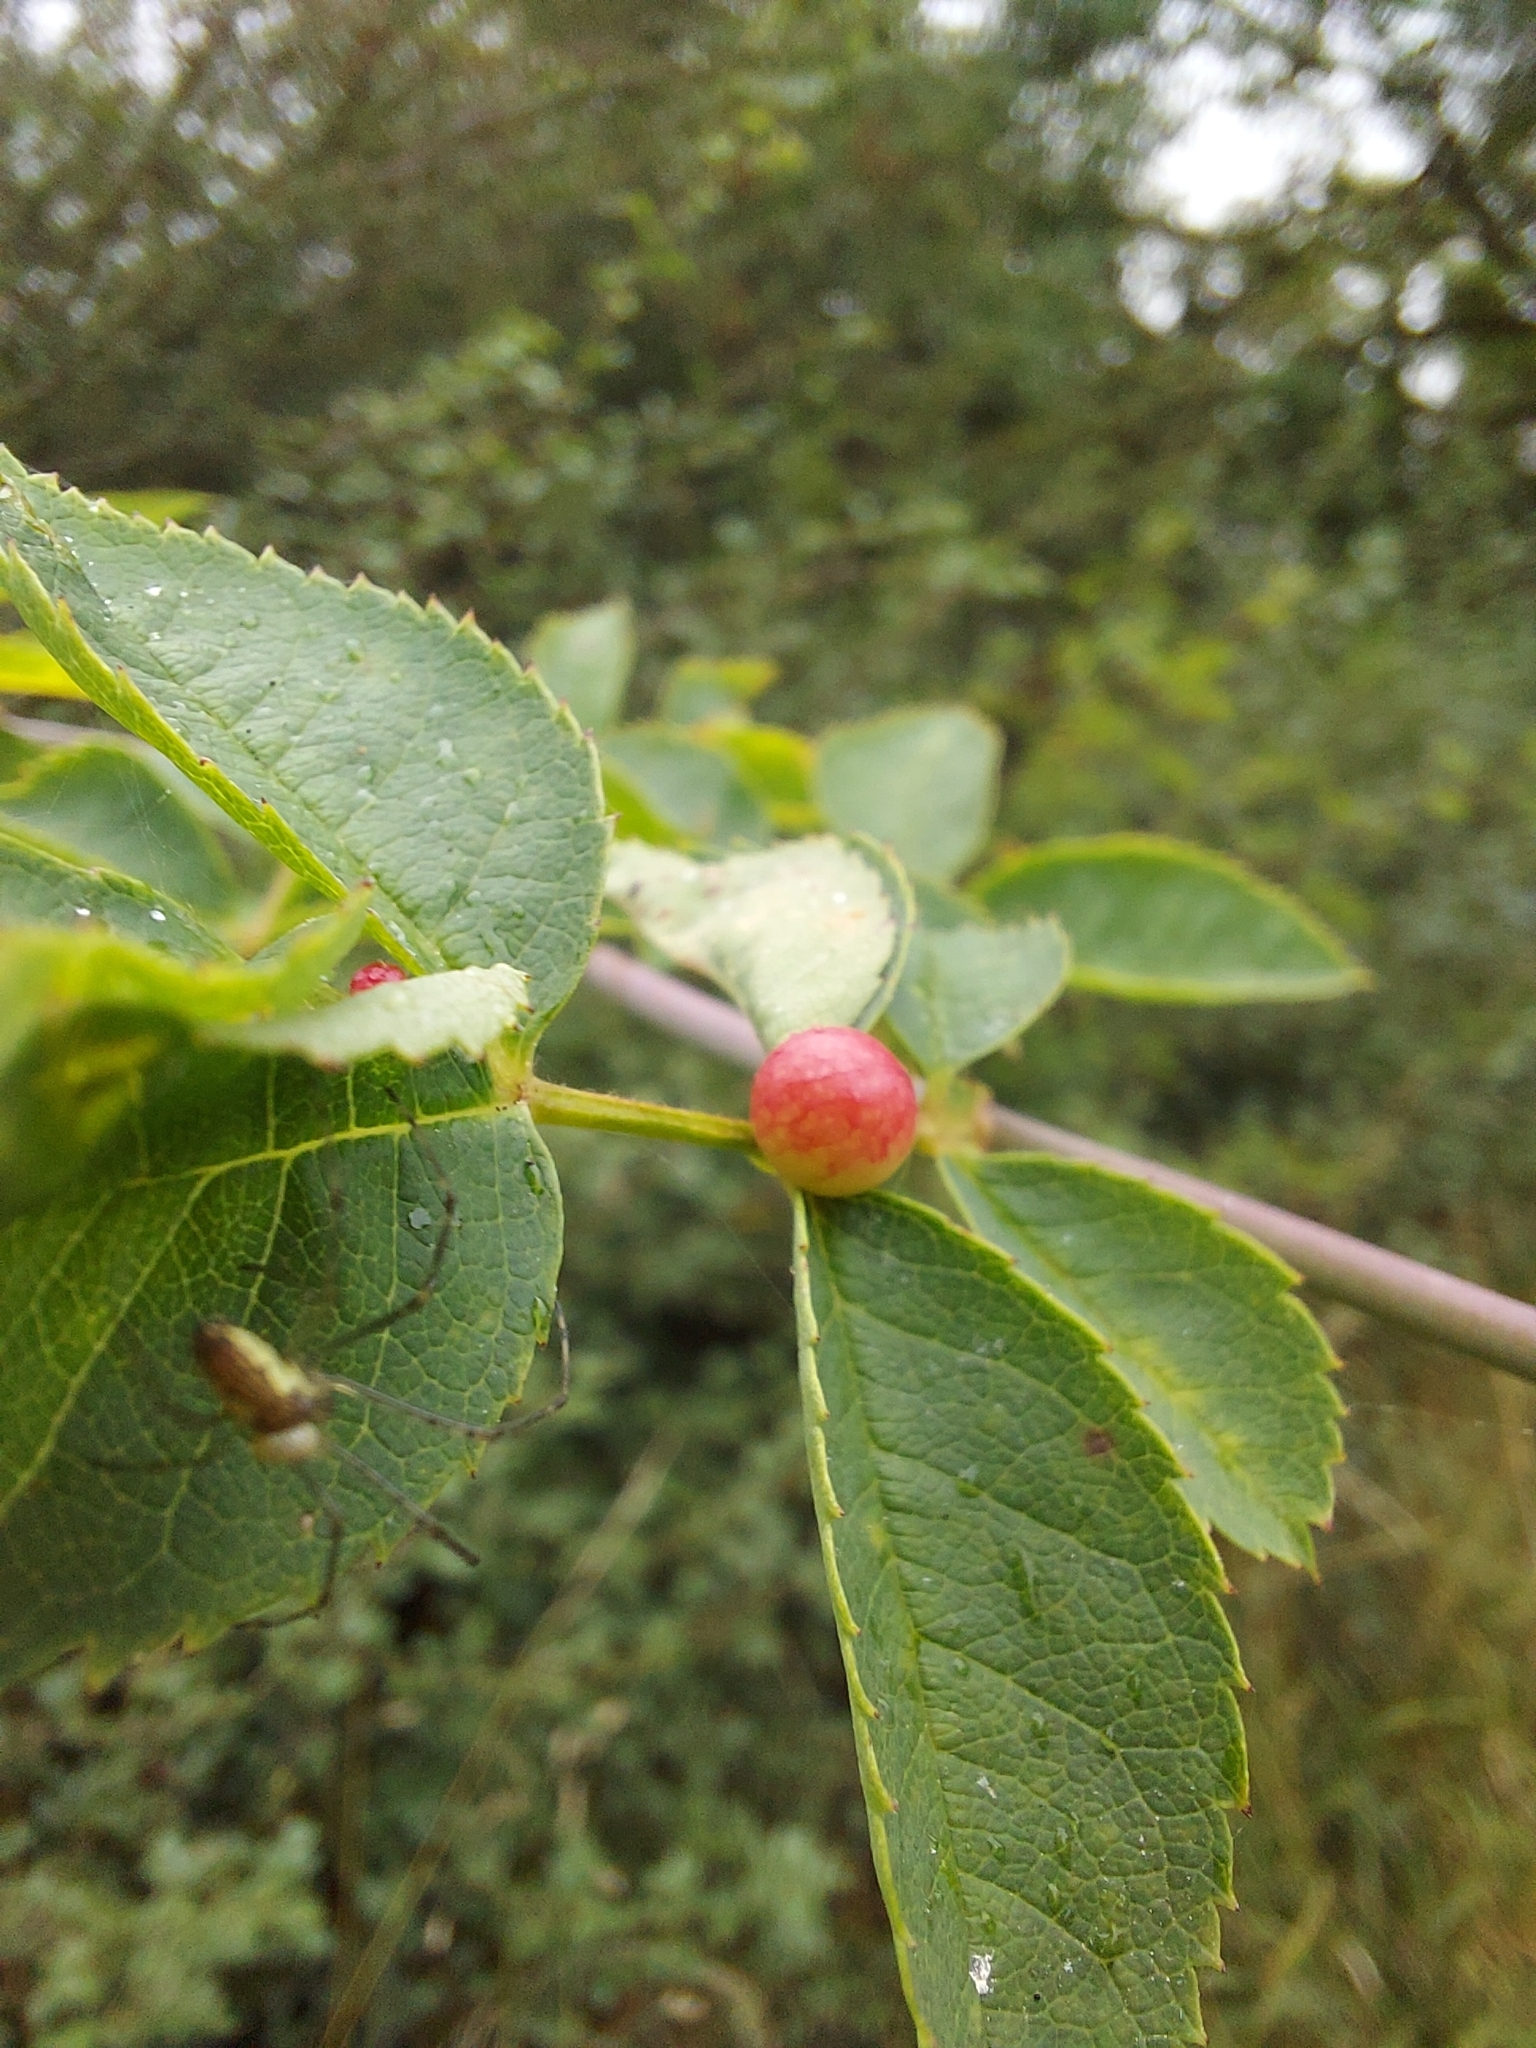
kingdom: Animalia
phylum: Arthropoda
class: Insecta
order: Hymenoptera
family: Cynipidae
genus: Diplolepis
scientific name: Diplolepis
